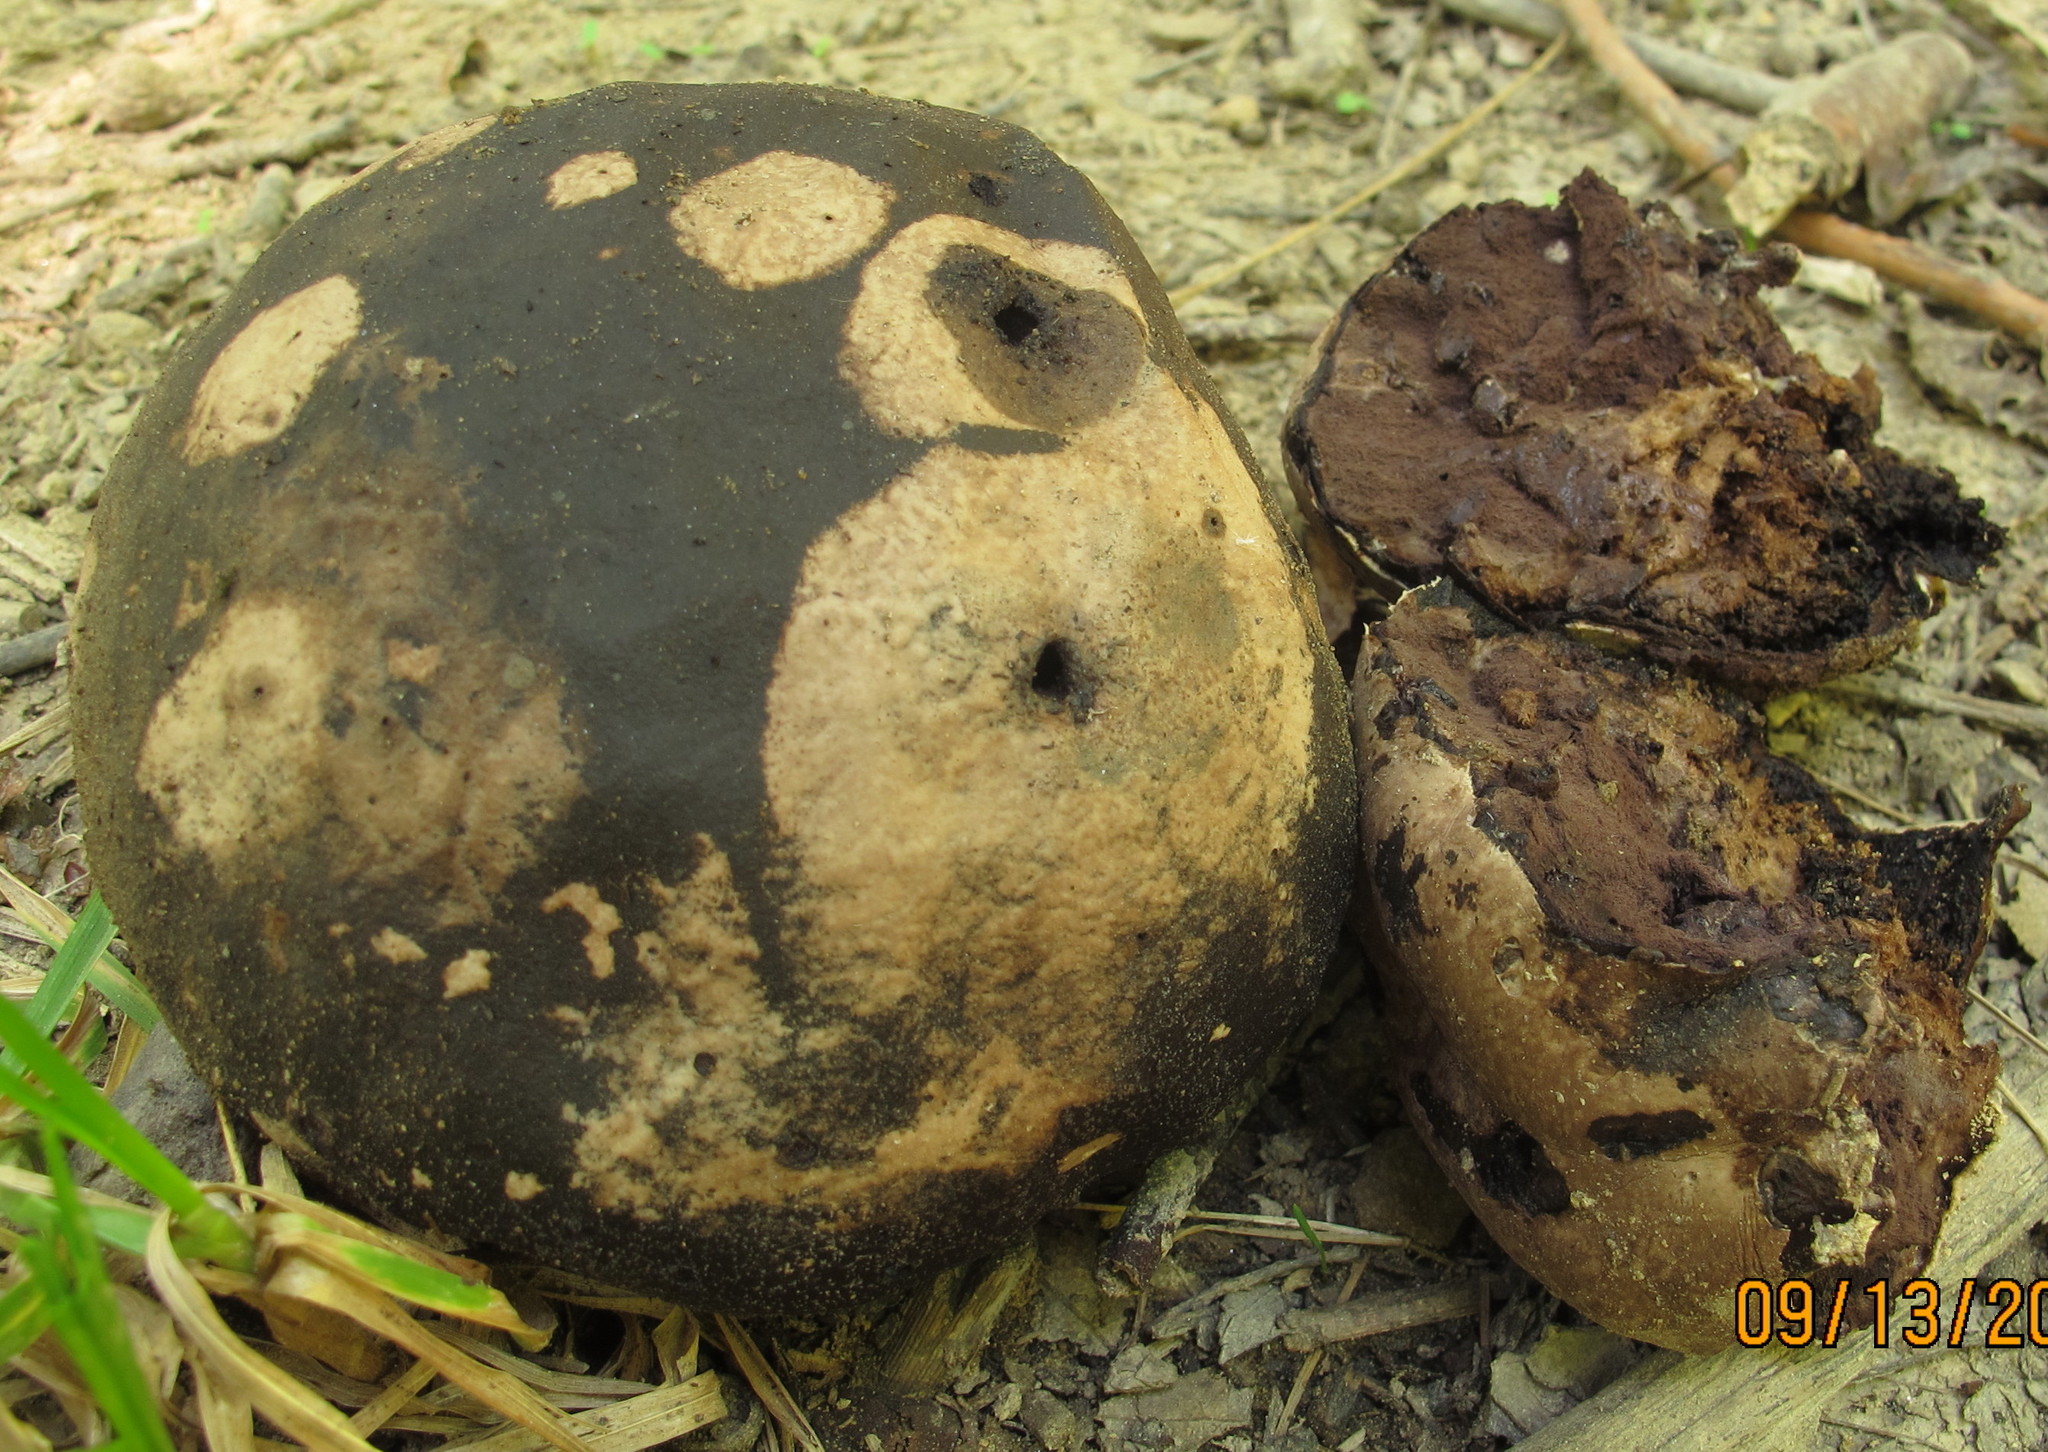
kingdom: Fungi
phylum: Basidiomycota
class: Agaricomycetes
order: Agaricales
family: Lycoperdaceae
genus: Calvatia
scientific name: Calvatia cyathiformis
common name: Purple-spored puffball
